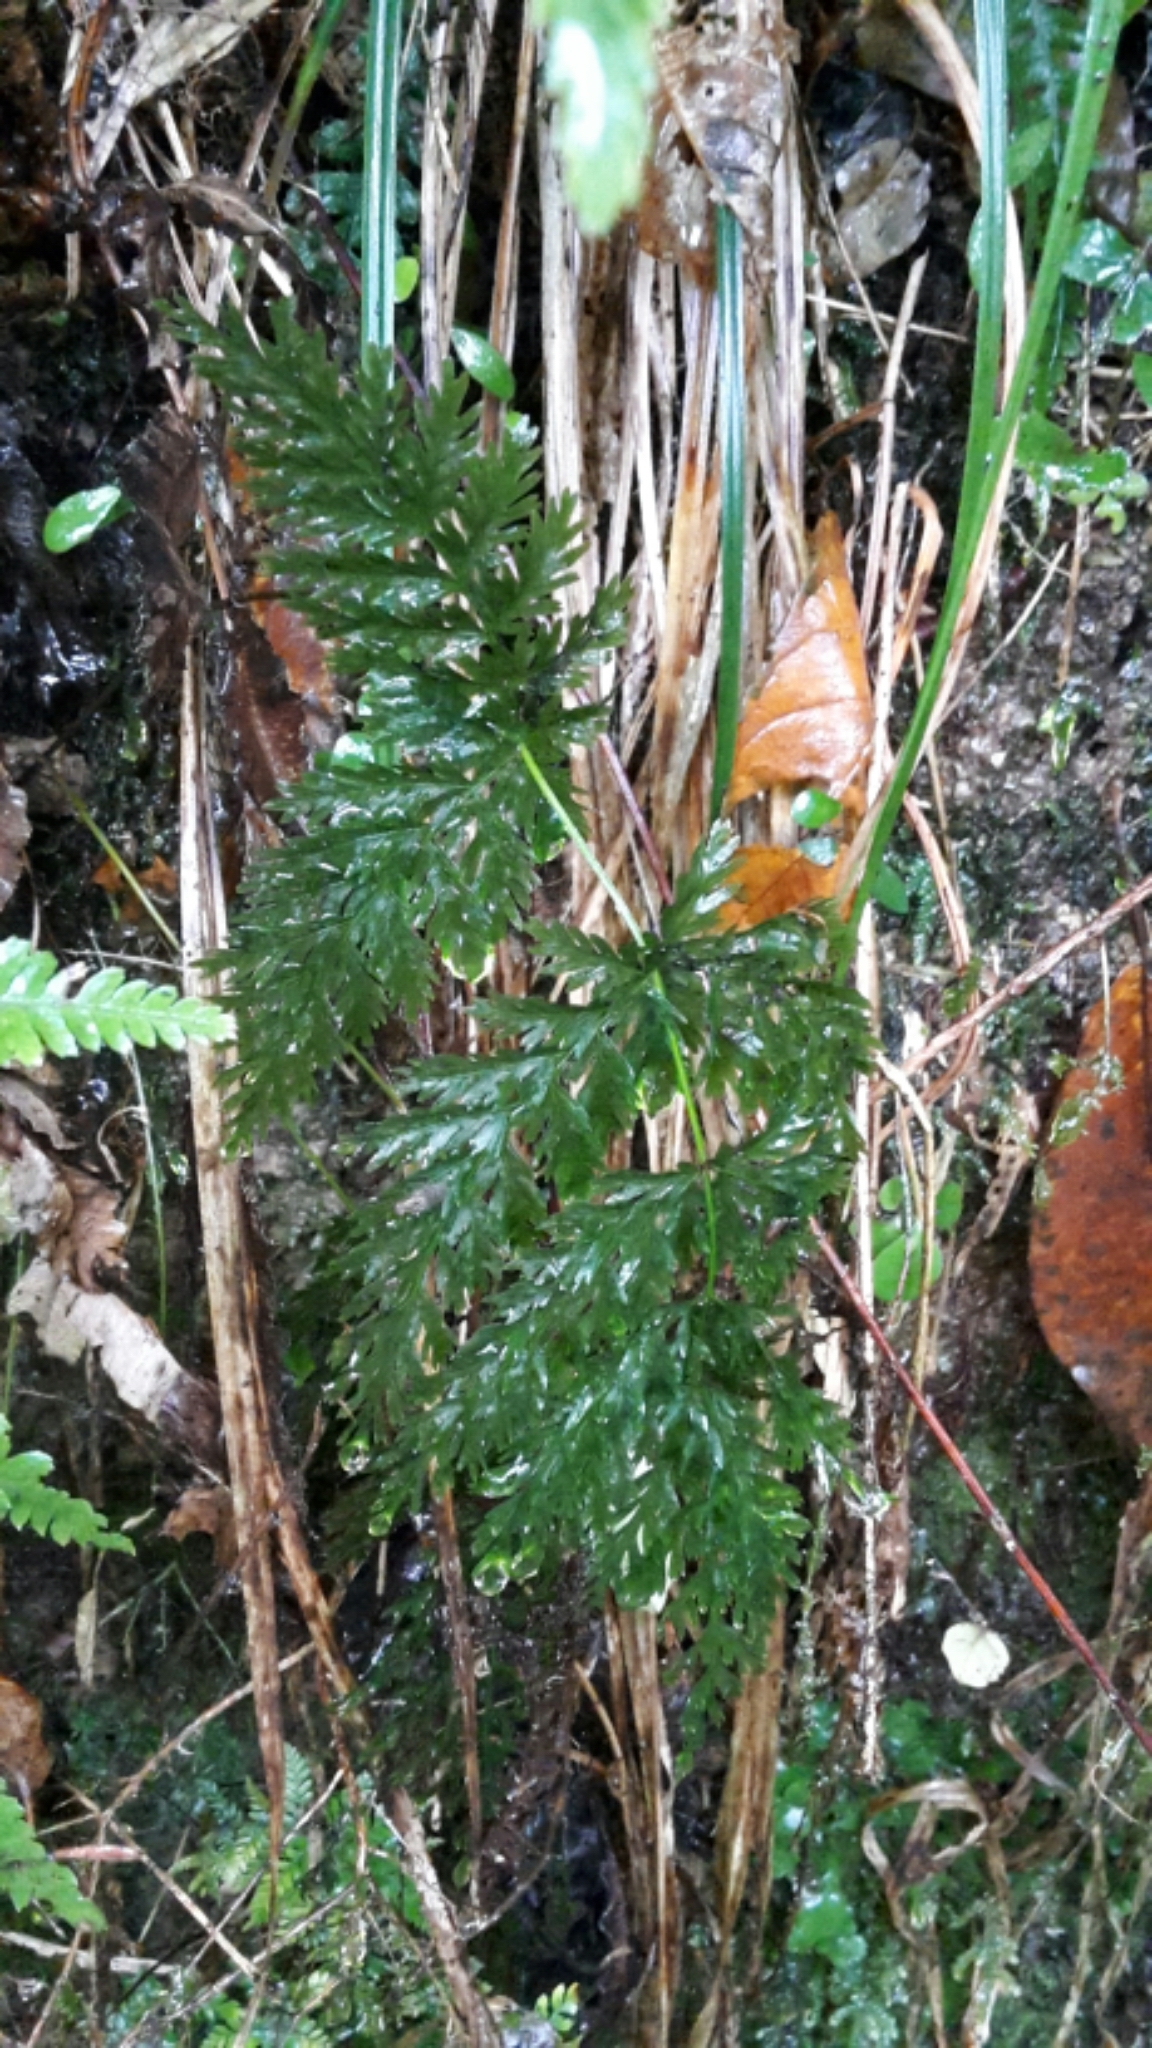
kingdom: Plantae
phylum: Tracheophyta
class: Polypodiopsida
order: Osmundales
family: Osmundaceae
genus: Leptopteris
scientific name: Leptopteris hymenophylloides
